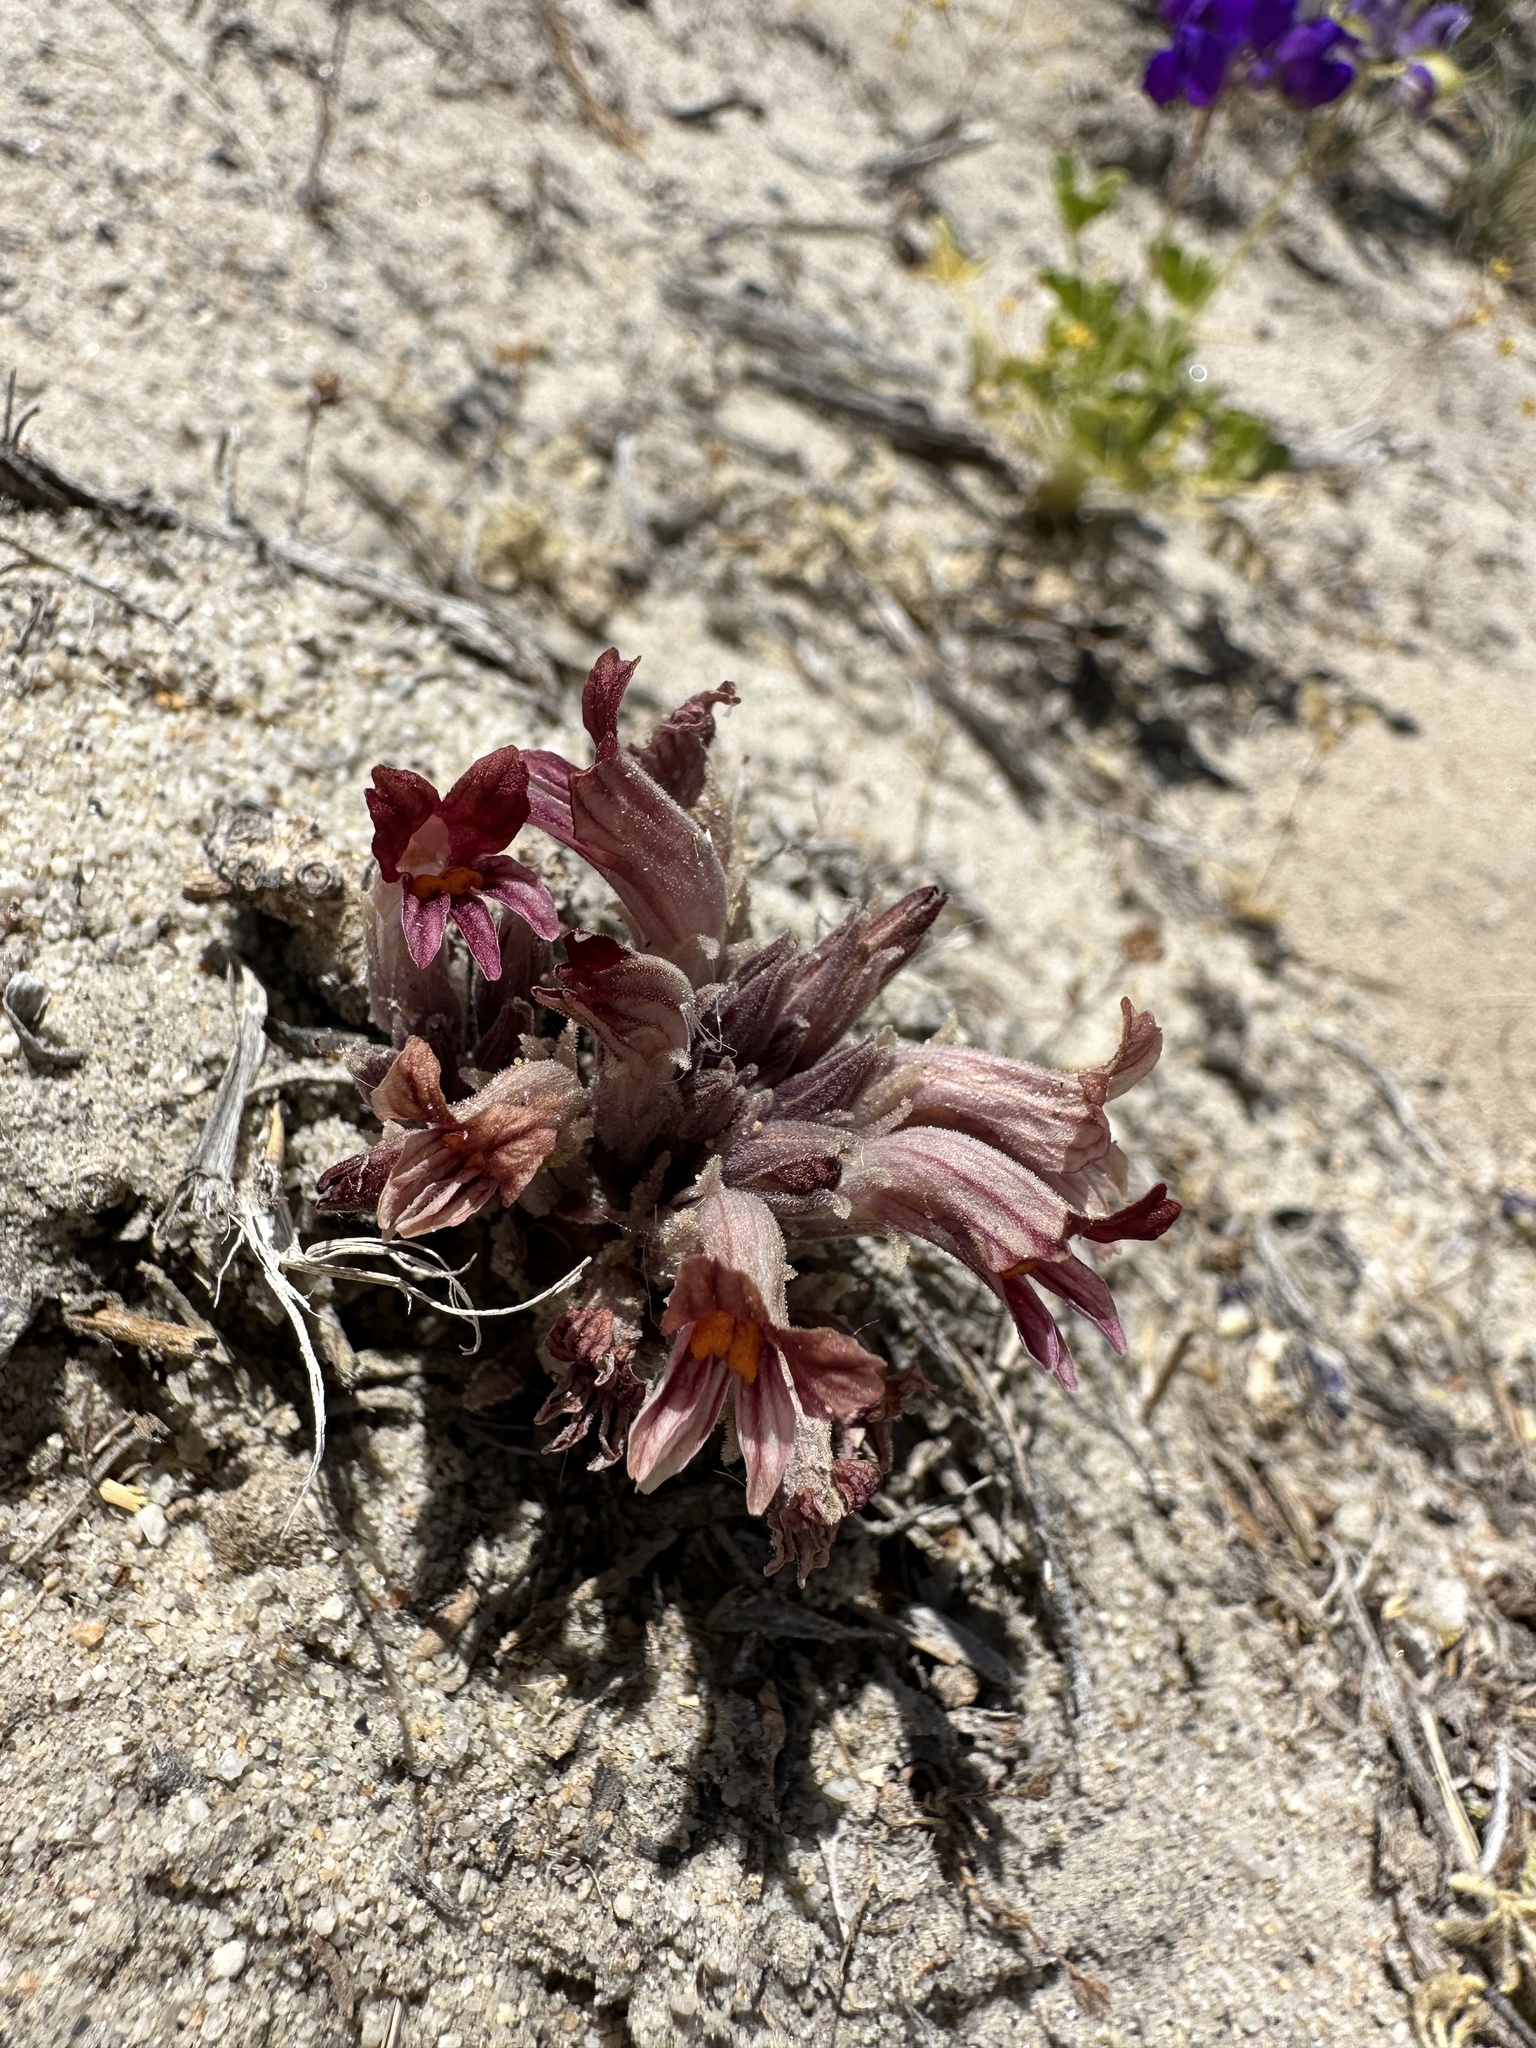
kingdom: Plantae
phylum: Tracheophyta
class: Magnoliopsida
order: Lamiales
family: Orobanchaceae
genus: Aphyllon
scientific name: Aphyllon corymbosum
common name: Flat-top broomrape
